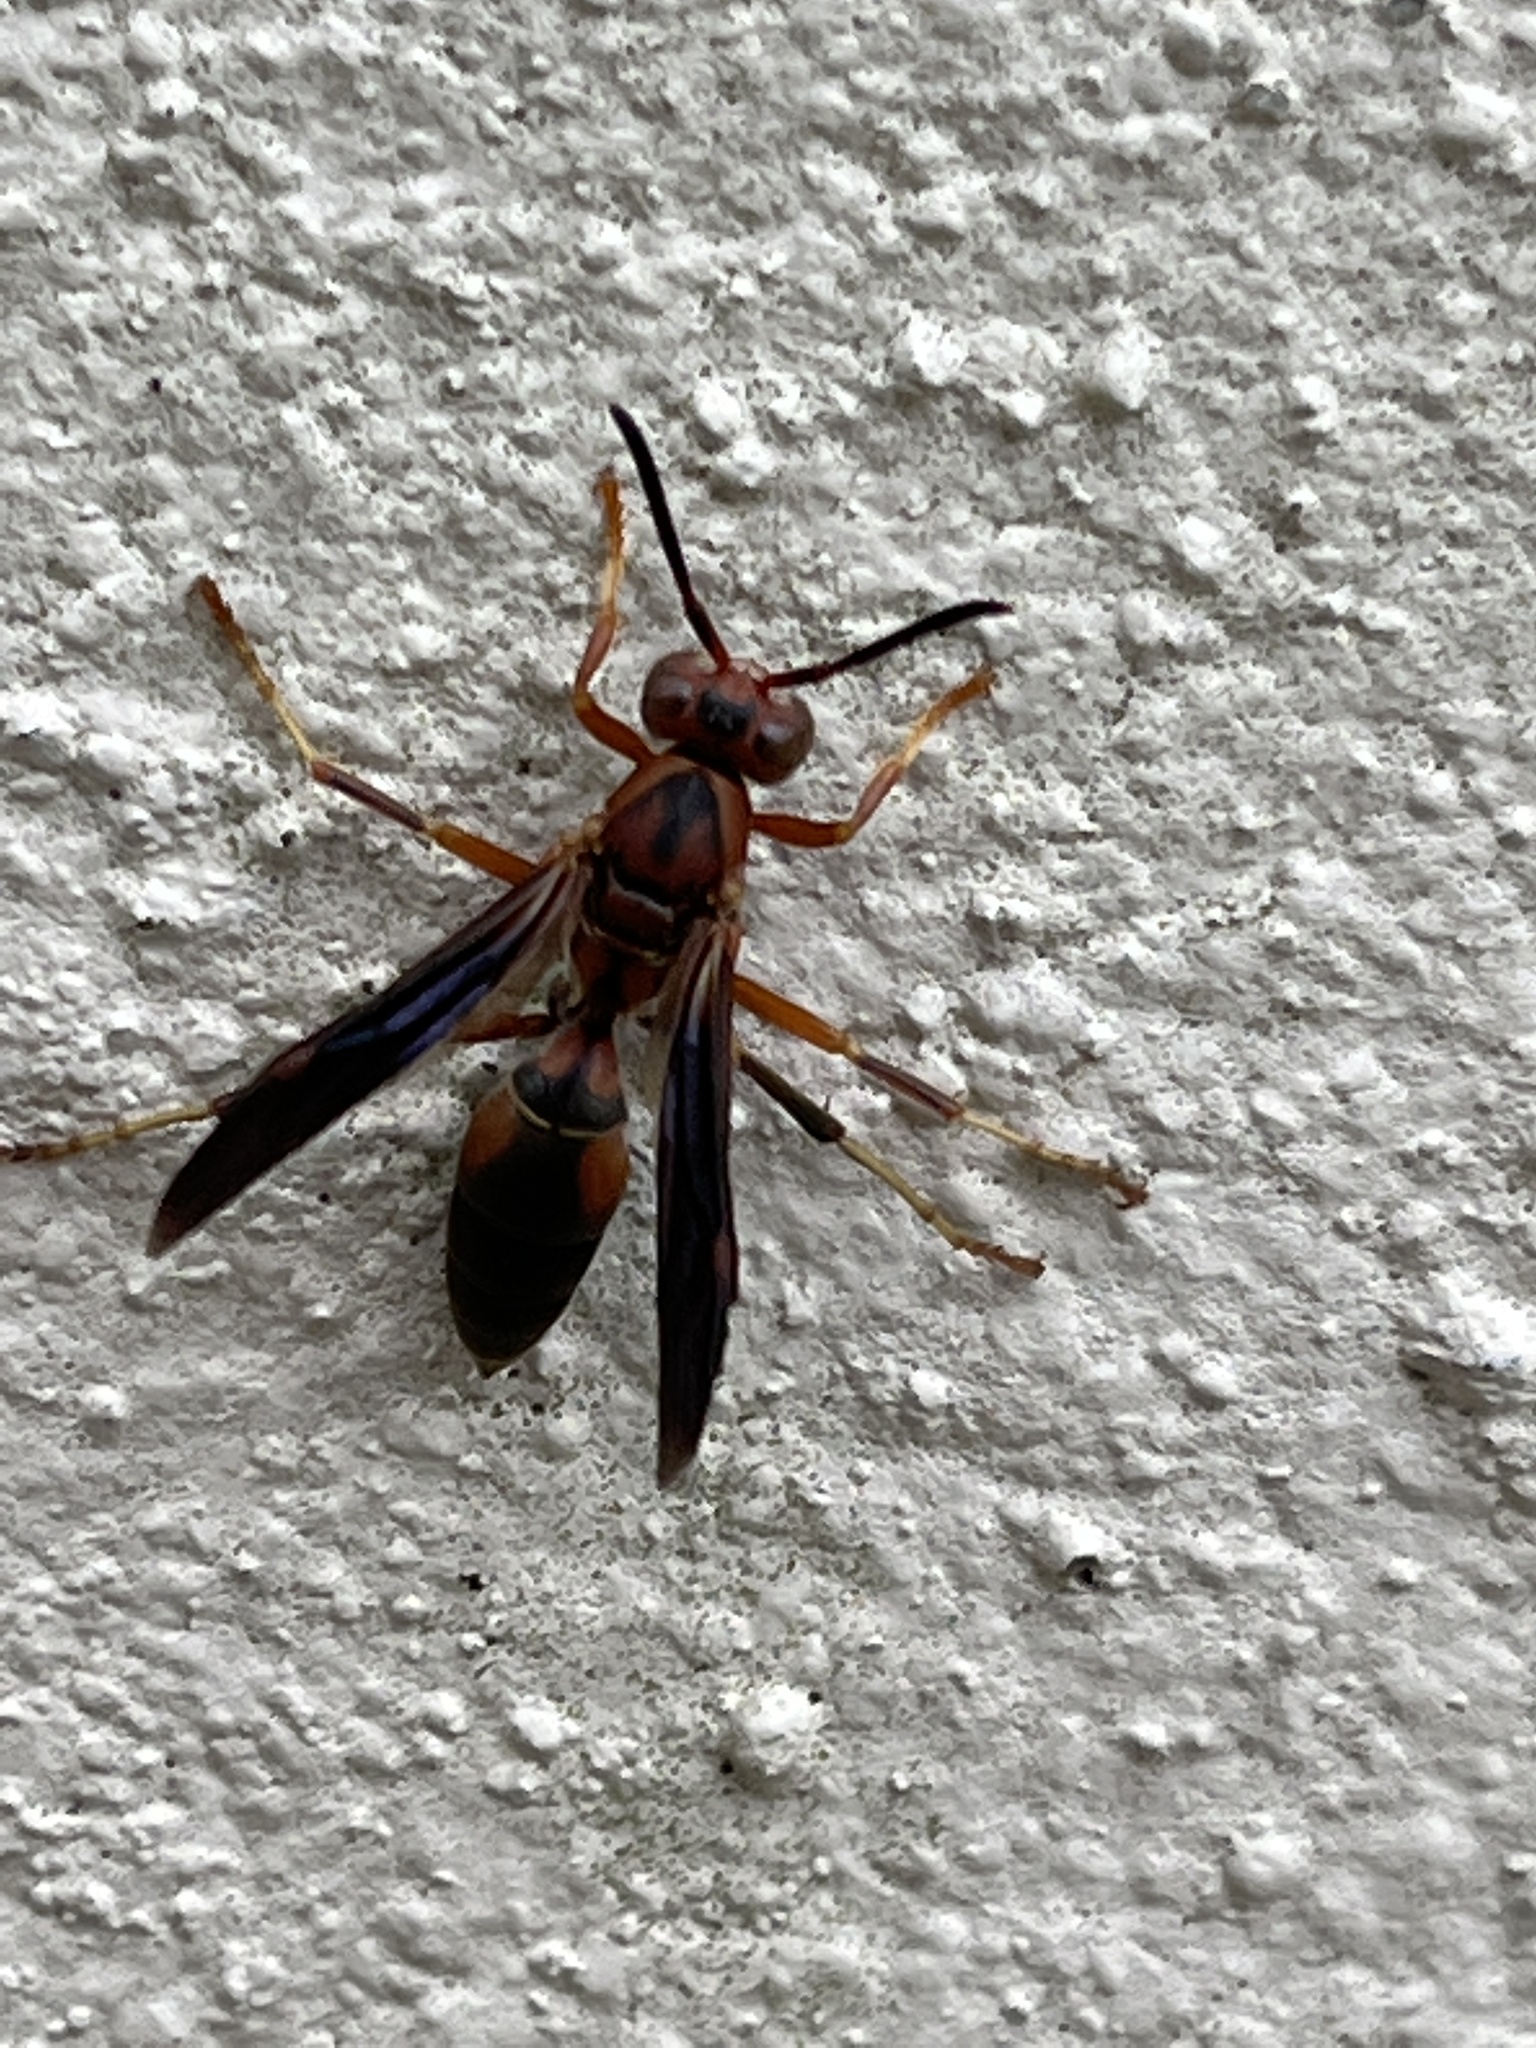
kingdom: Animalia
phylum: Arthropoda
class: Insecta
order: Hymenoptera
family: Eumenidae
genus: Polistes
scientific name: Polistes carolina
